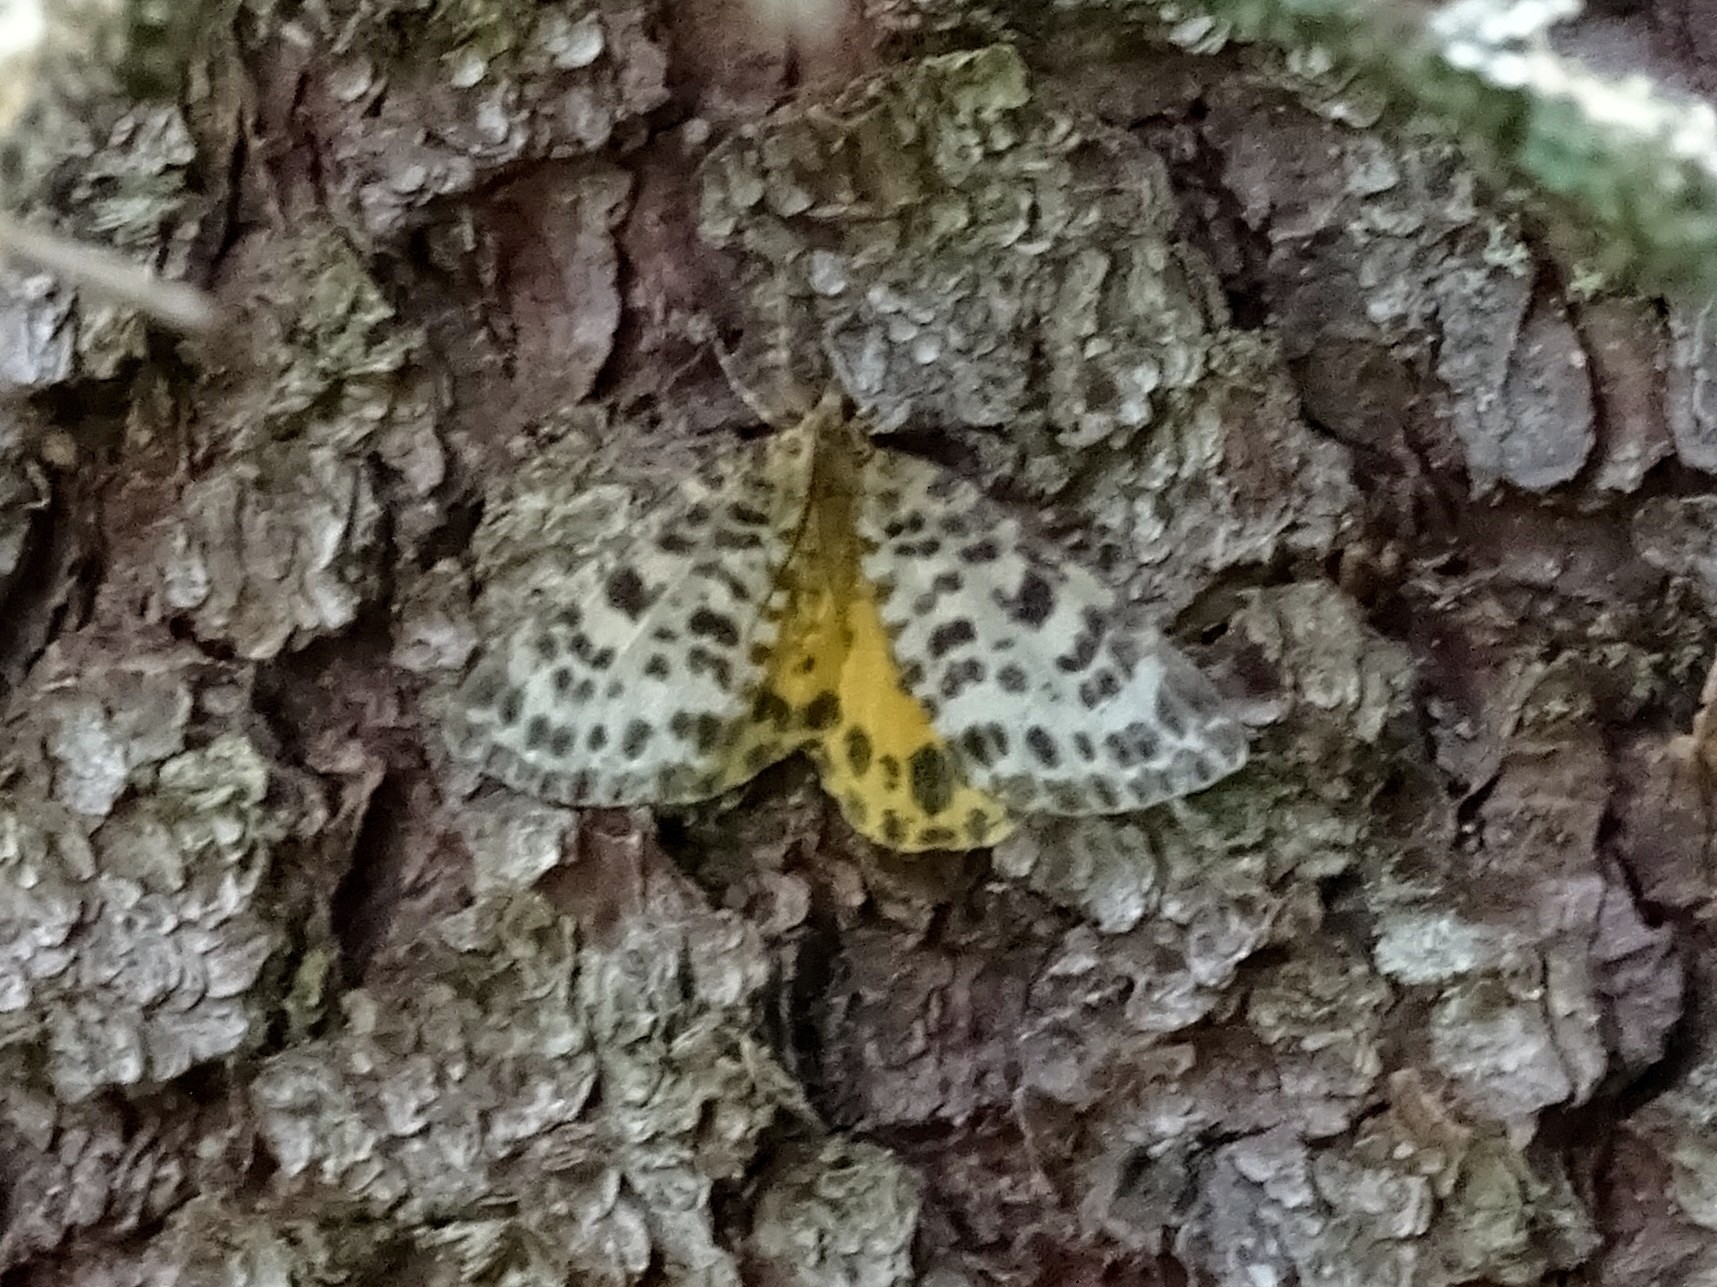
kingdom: Animalia
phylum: Arthropoda
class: Insecta
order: Lepidoptera
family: Geometridae
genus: Arichanna
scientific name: Arichanna melanaria
